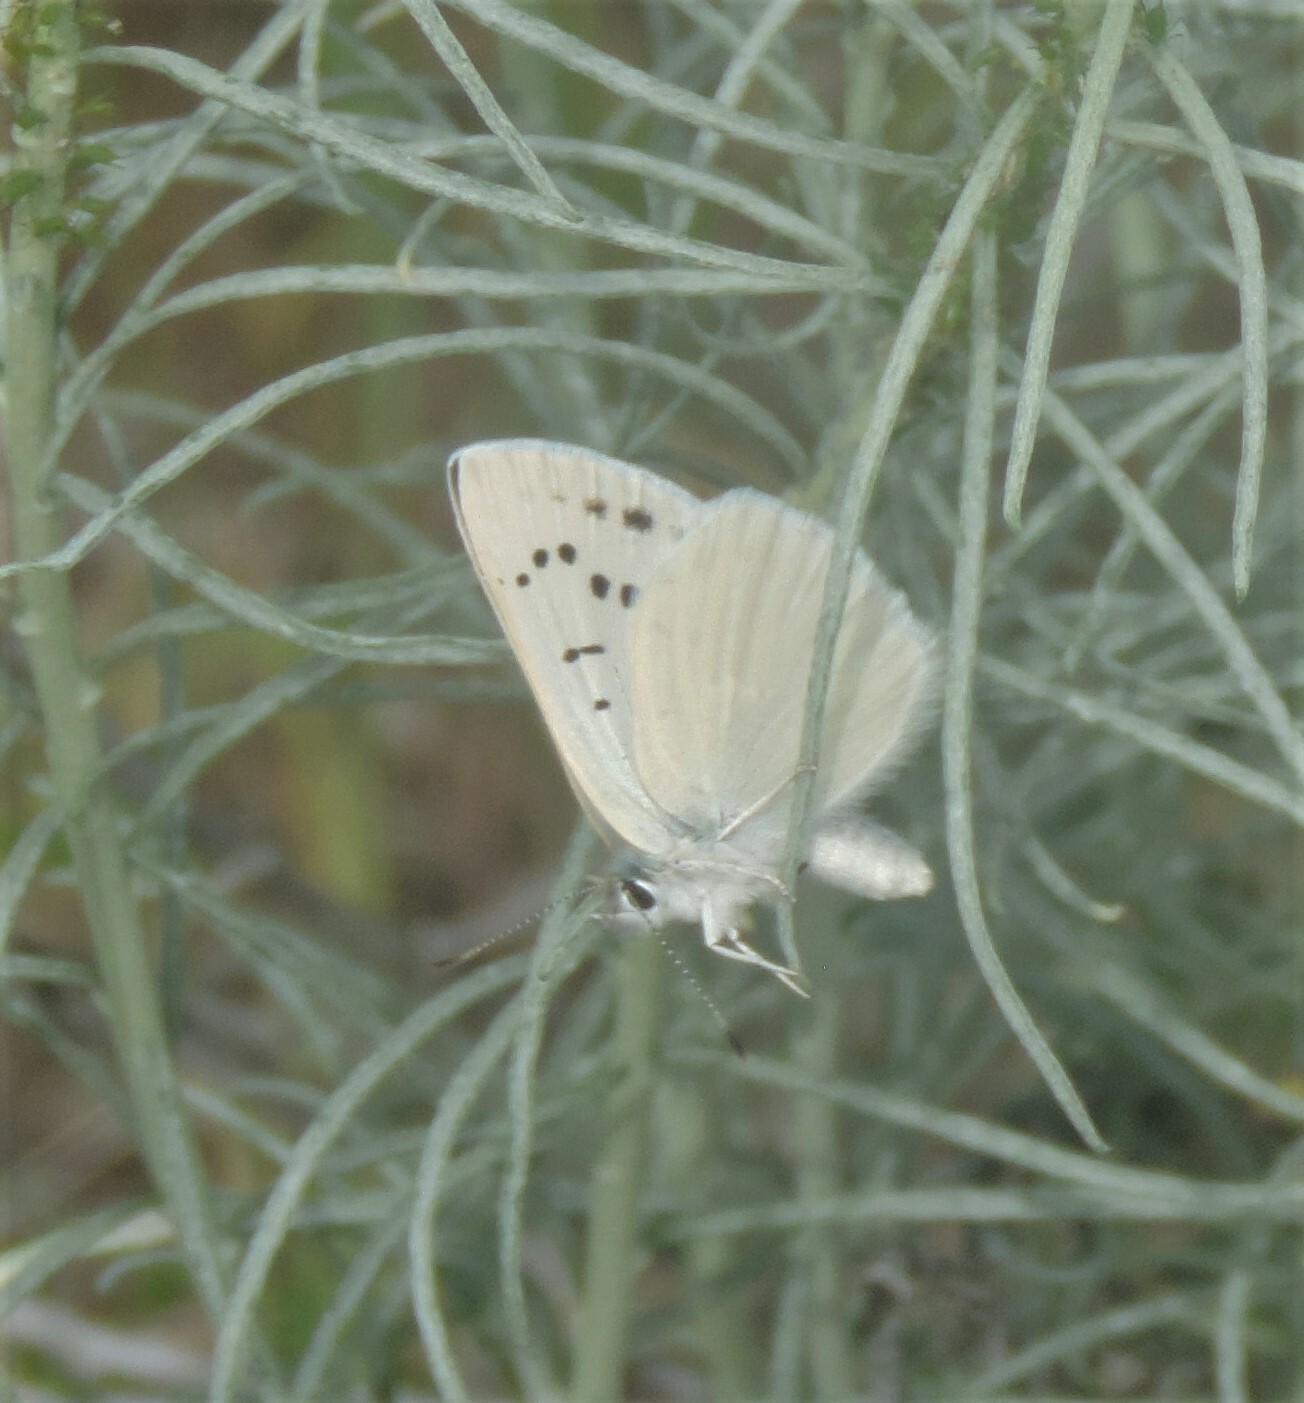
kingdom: Animalia
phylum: Arthropoda
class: Insecta
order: Lepidoptera
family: Lycaenidae
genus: Tharsalea
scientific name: Tharsalea heteronea
